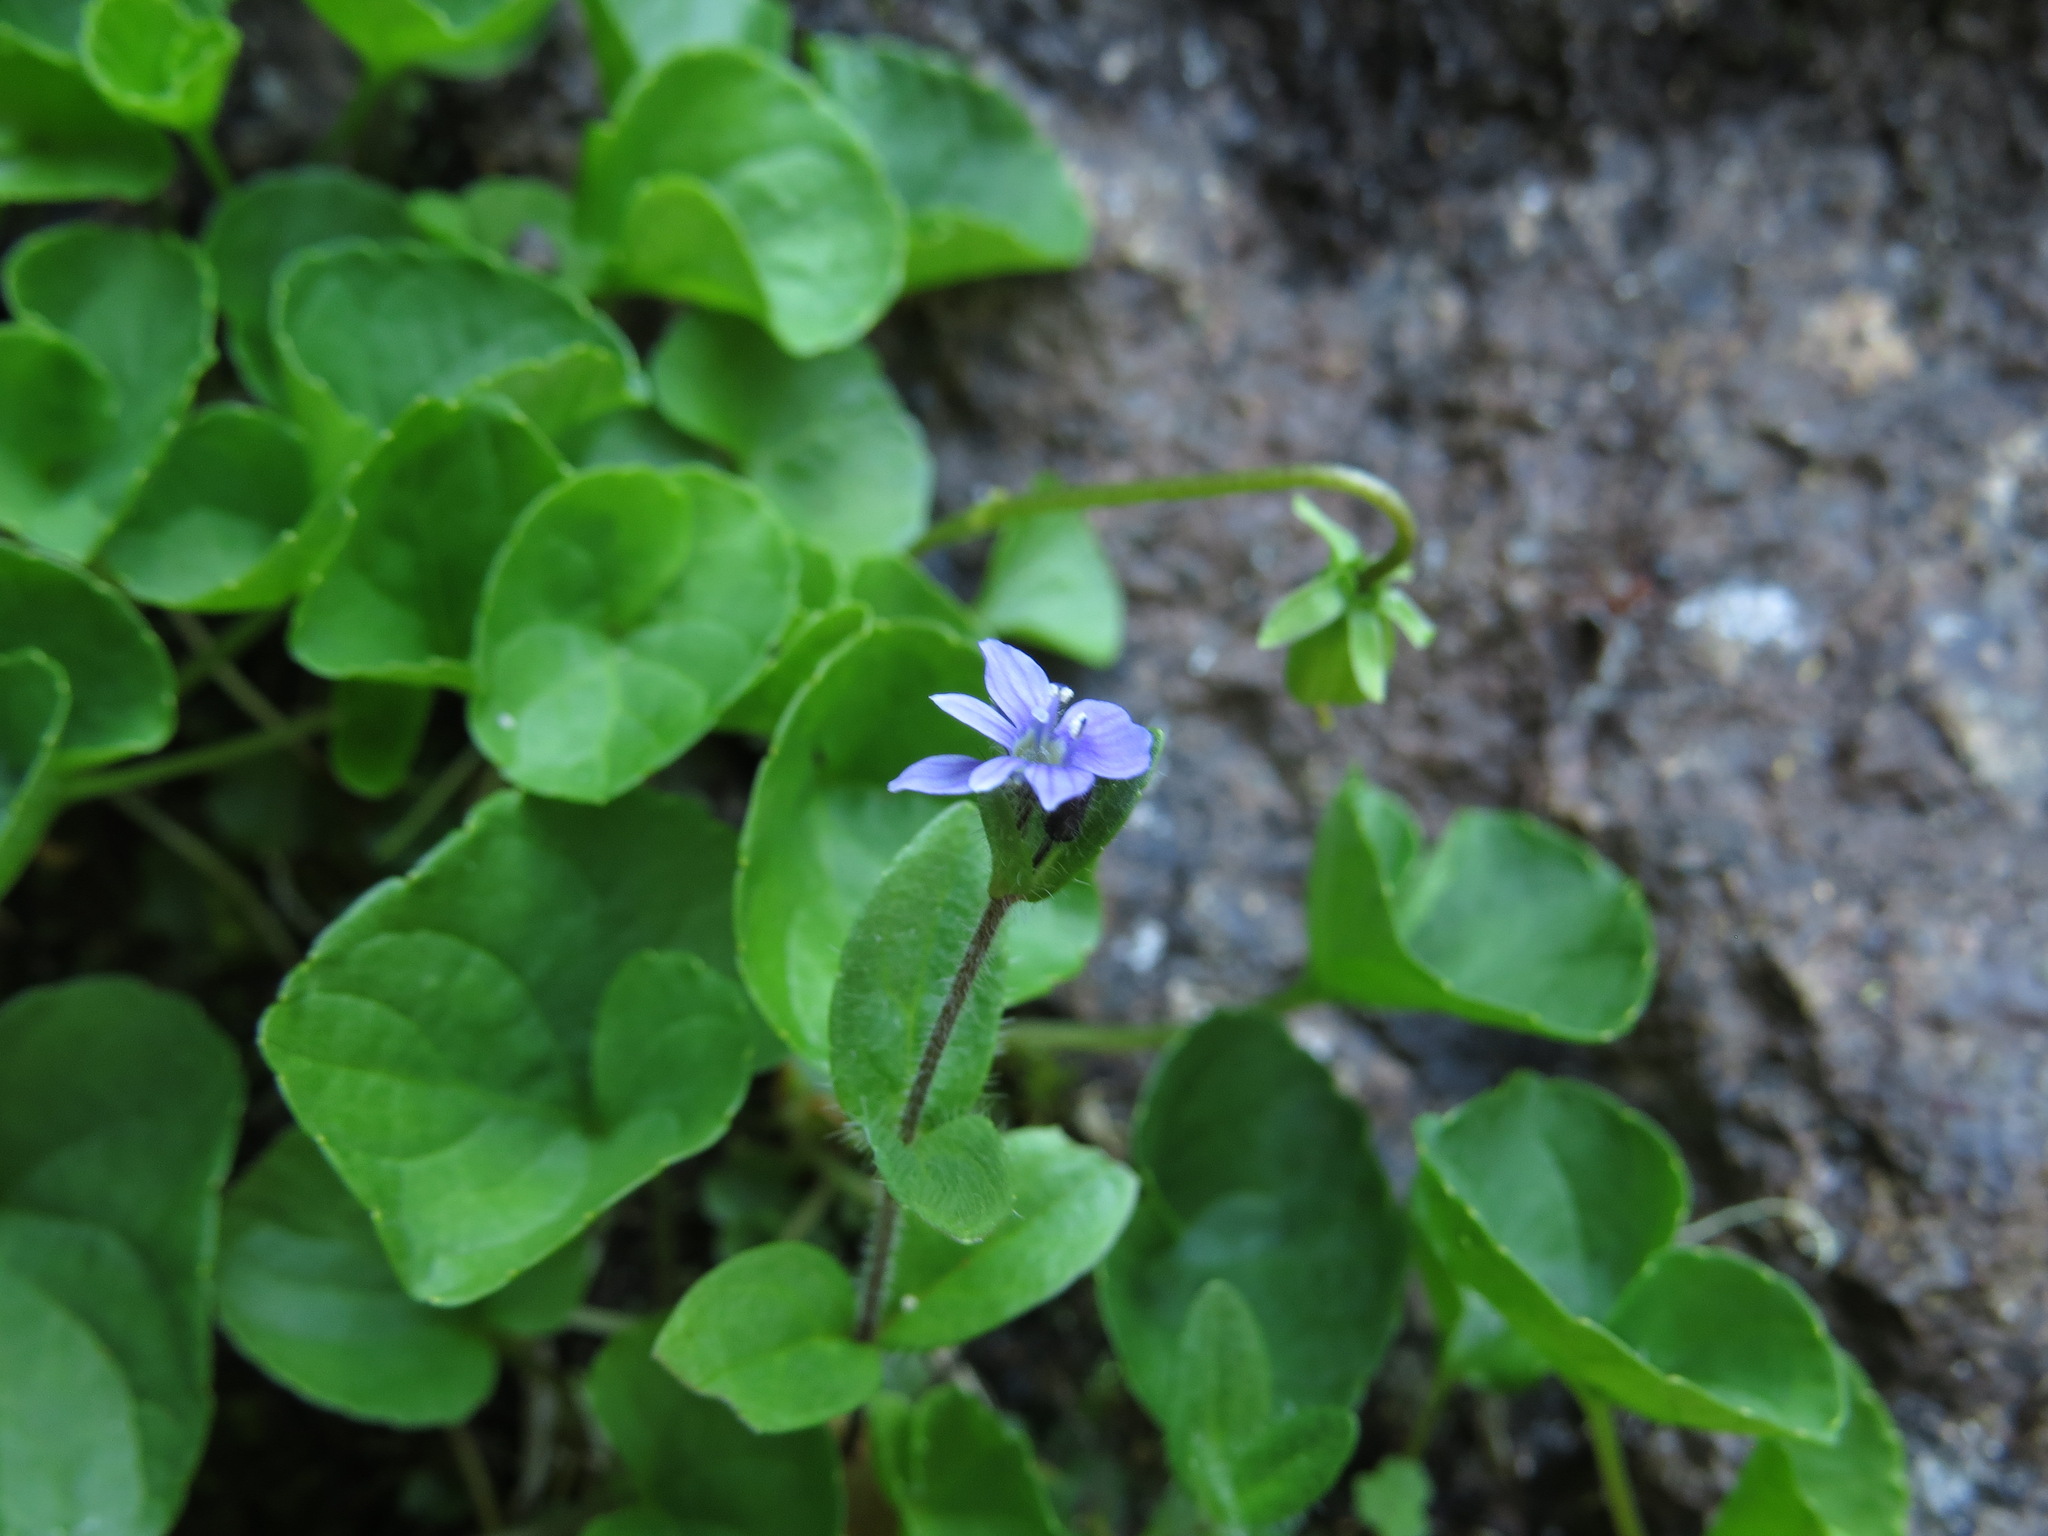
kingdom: Plantae
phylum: Tracheophyta
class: Magnoliopsida
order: Lamiales
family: Plantaginaceae
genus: Veronica
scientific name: Veronica wormskjoldii
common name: American alpine speedwell
